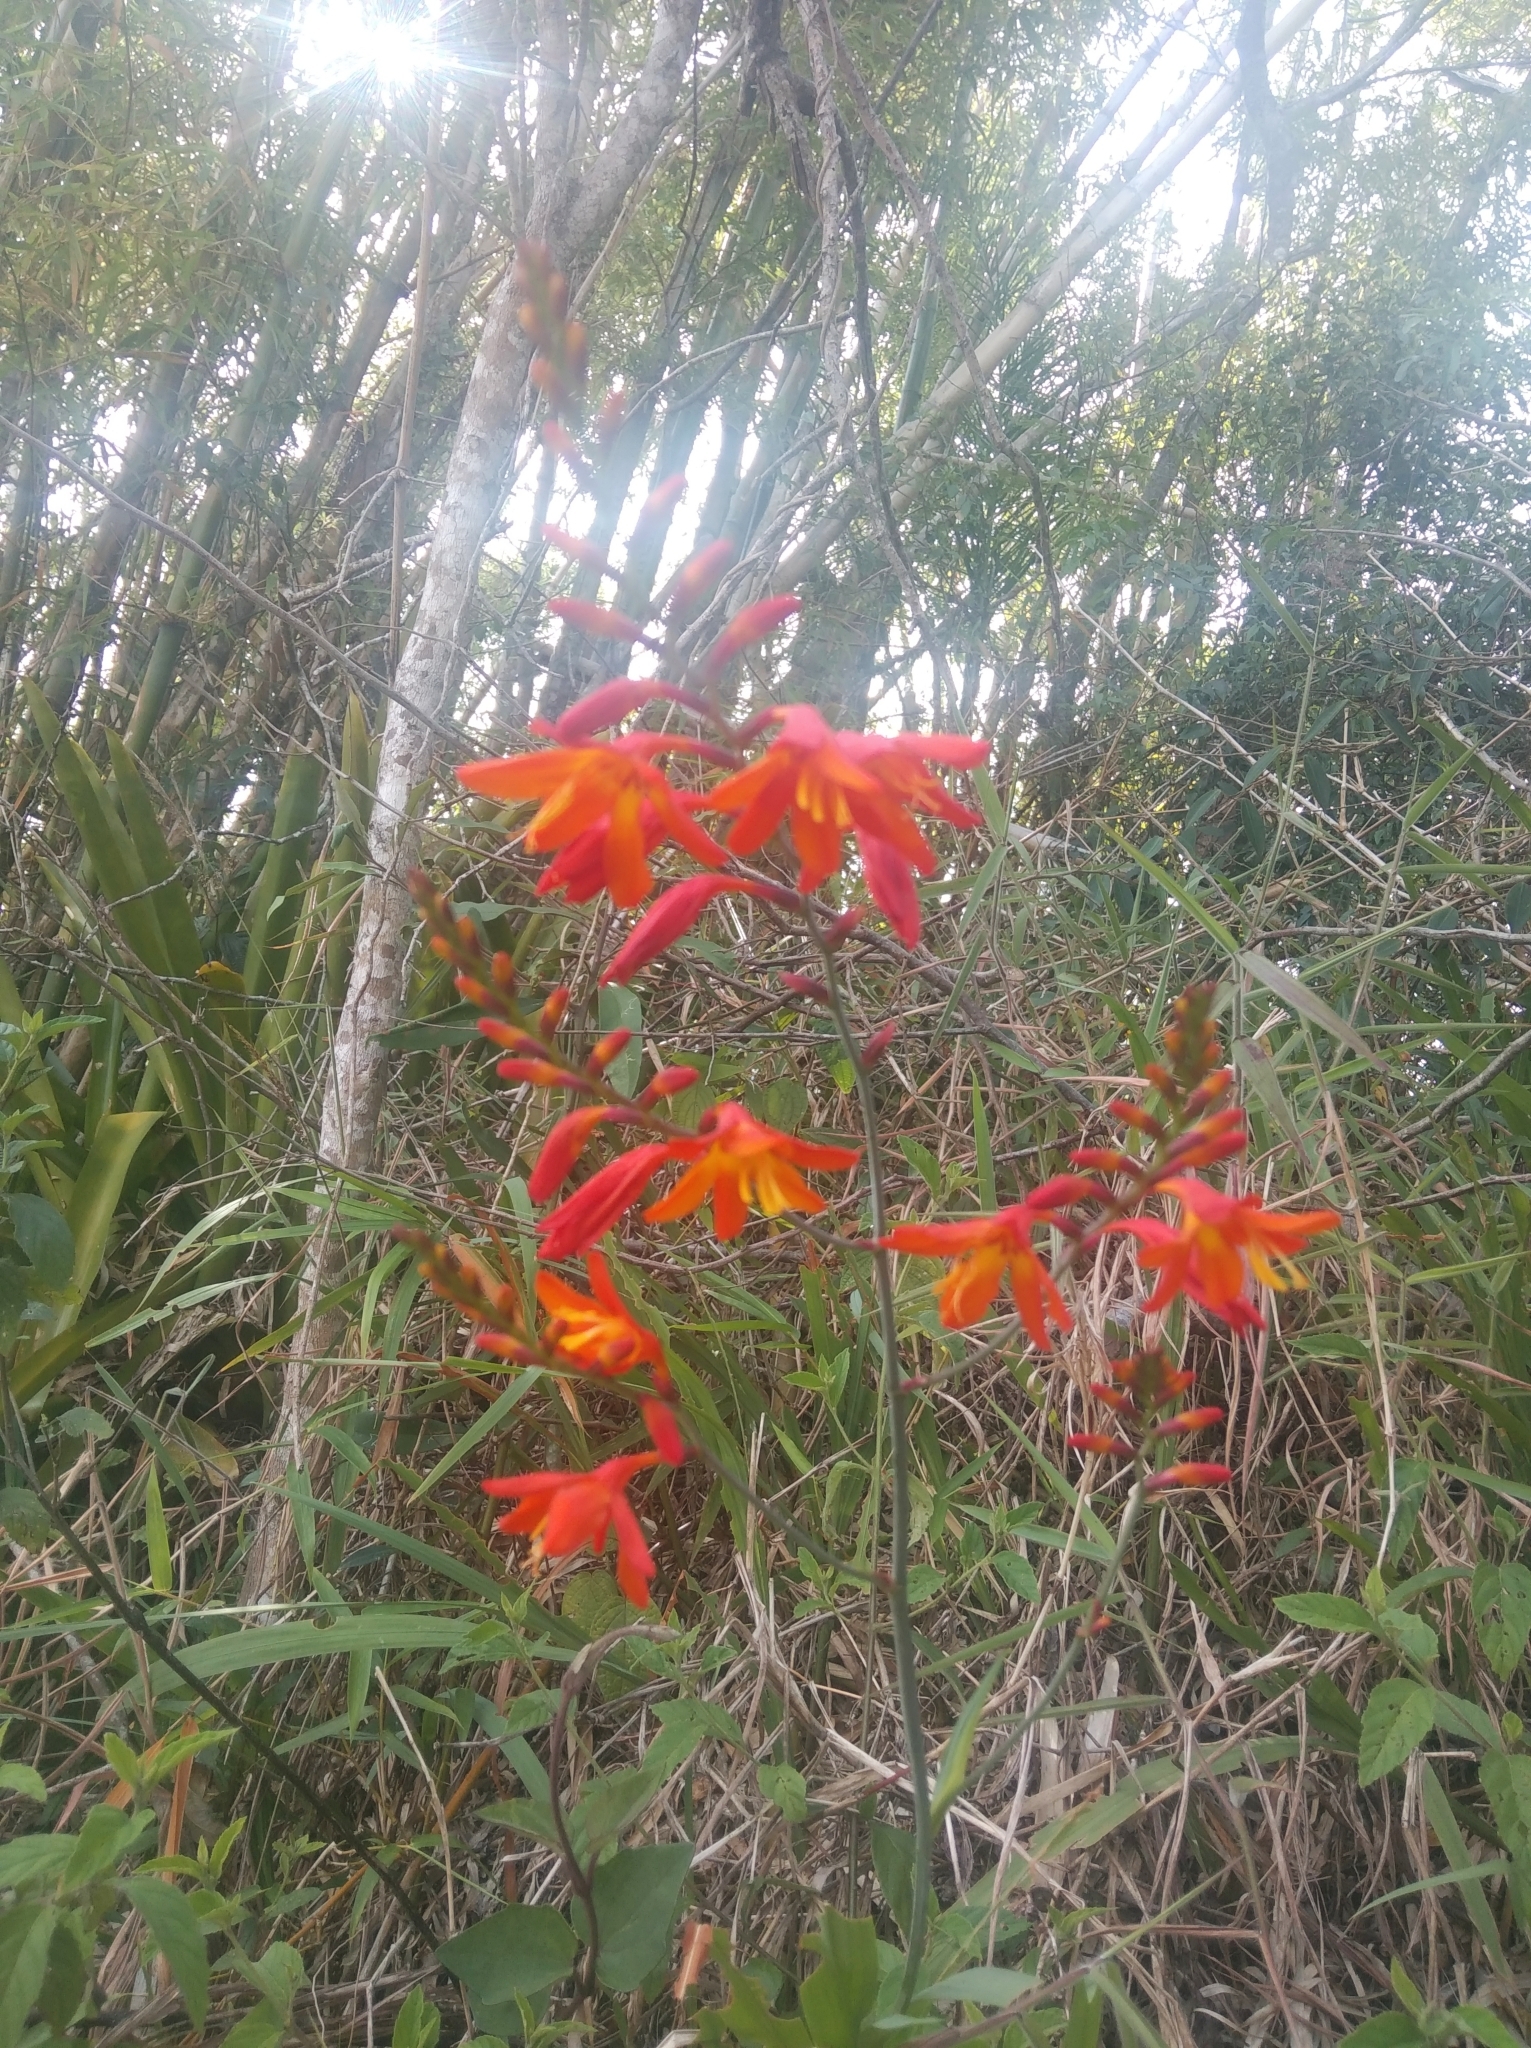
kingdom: Plantae
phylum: Tracheophyta
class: Liliopsida
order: Asparagales
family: Iridaceae
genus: Crocosmia
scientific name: Crocosmia crocosmiiflora
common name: Montbretia
